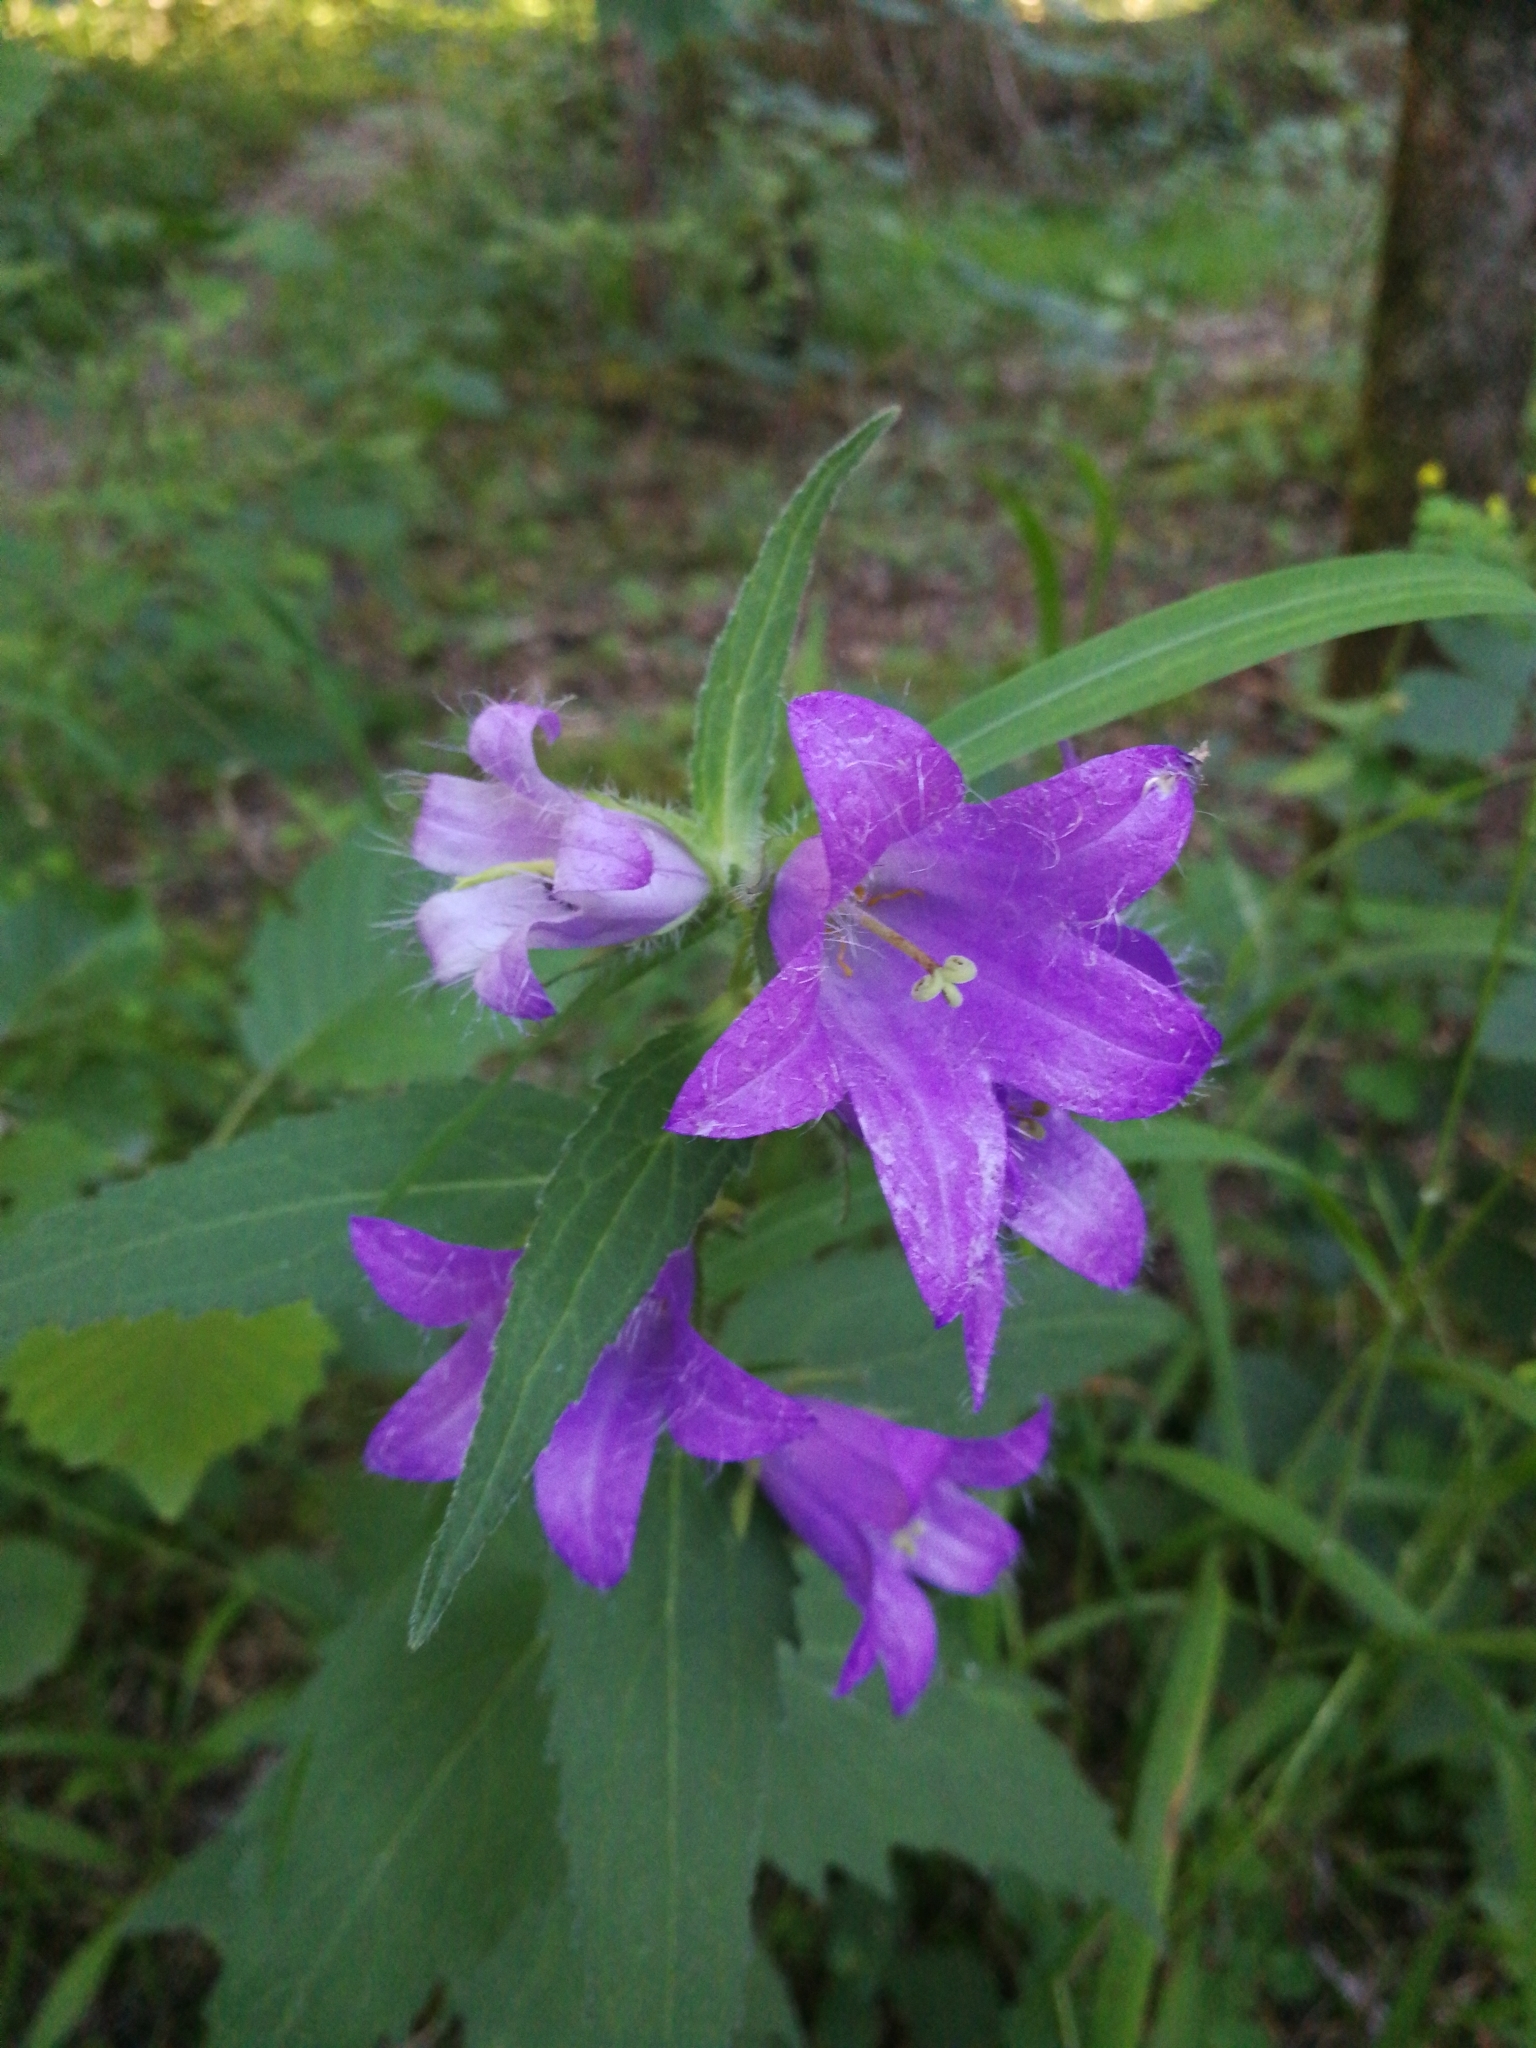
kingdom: Plantae
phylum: Tracheophyta
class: Magnoliopsida
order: Asterales
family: Campanulaceae
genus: Campanula
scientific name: Campanula trachelium
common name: Nettle-leaved bellflower
